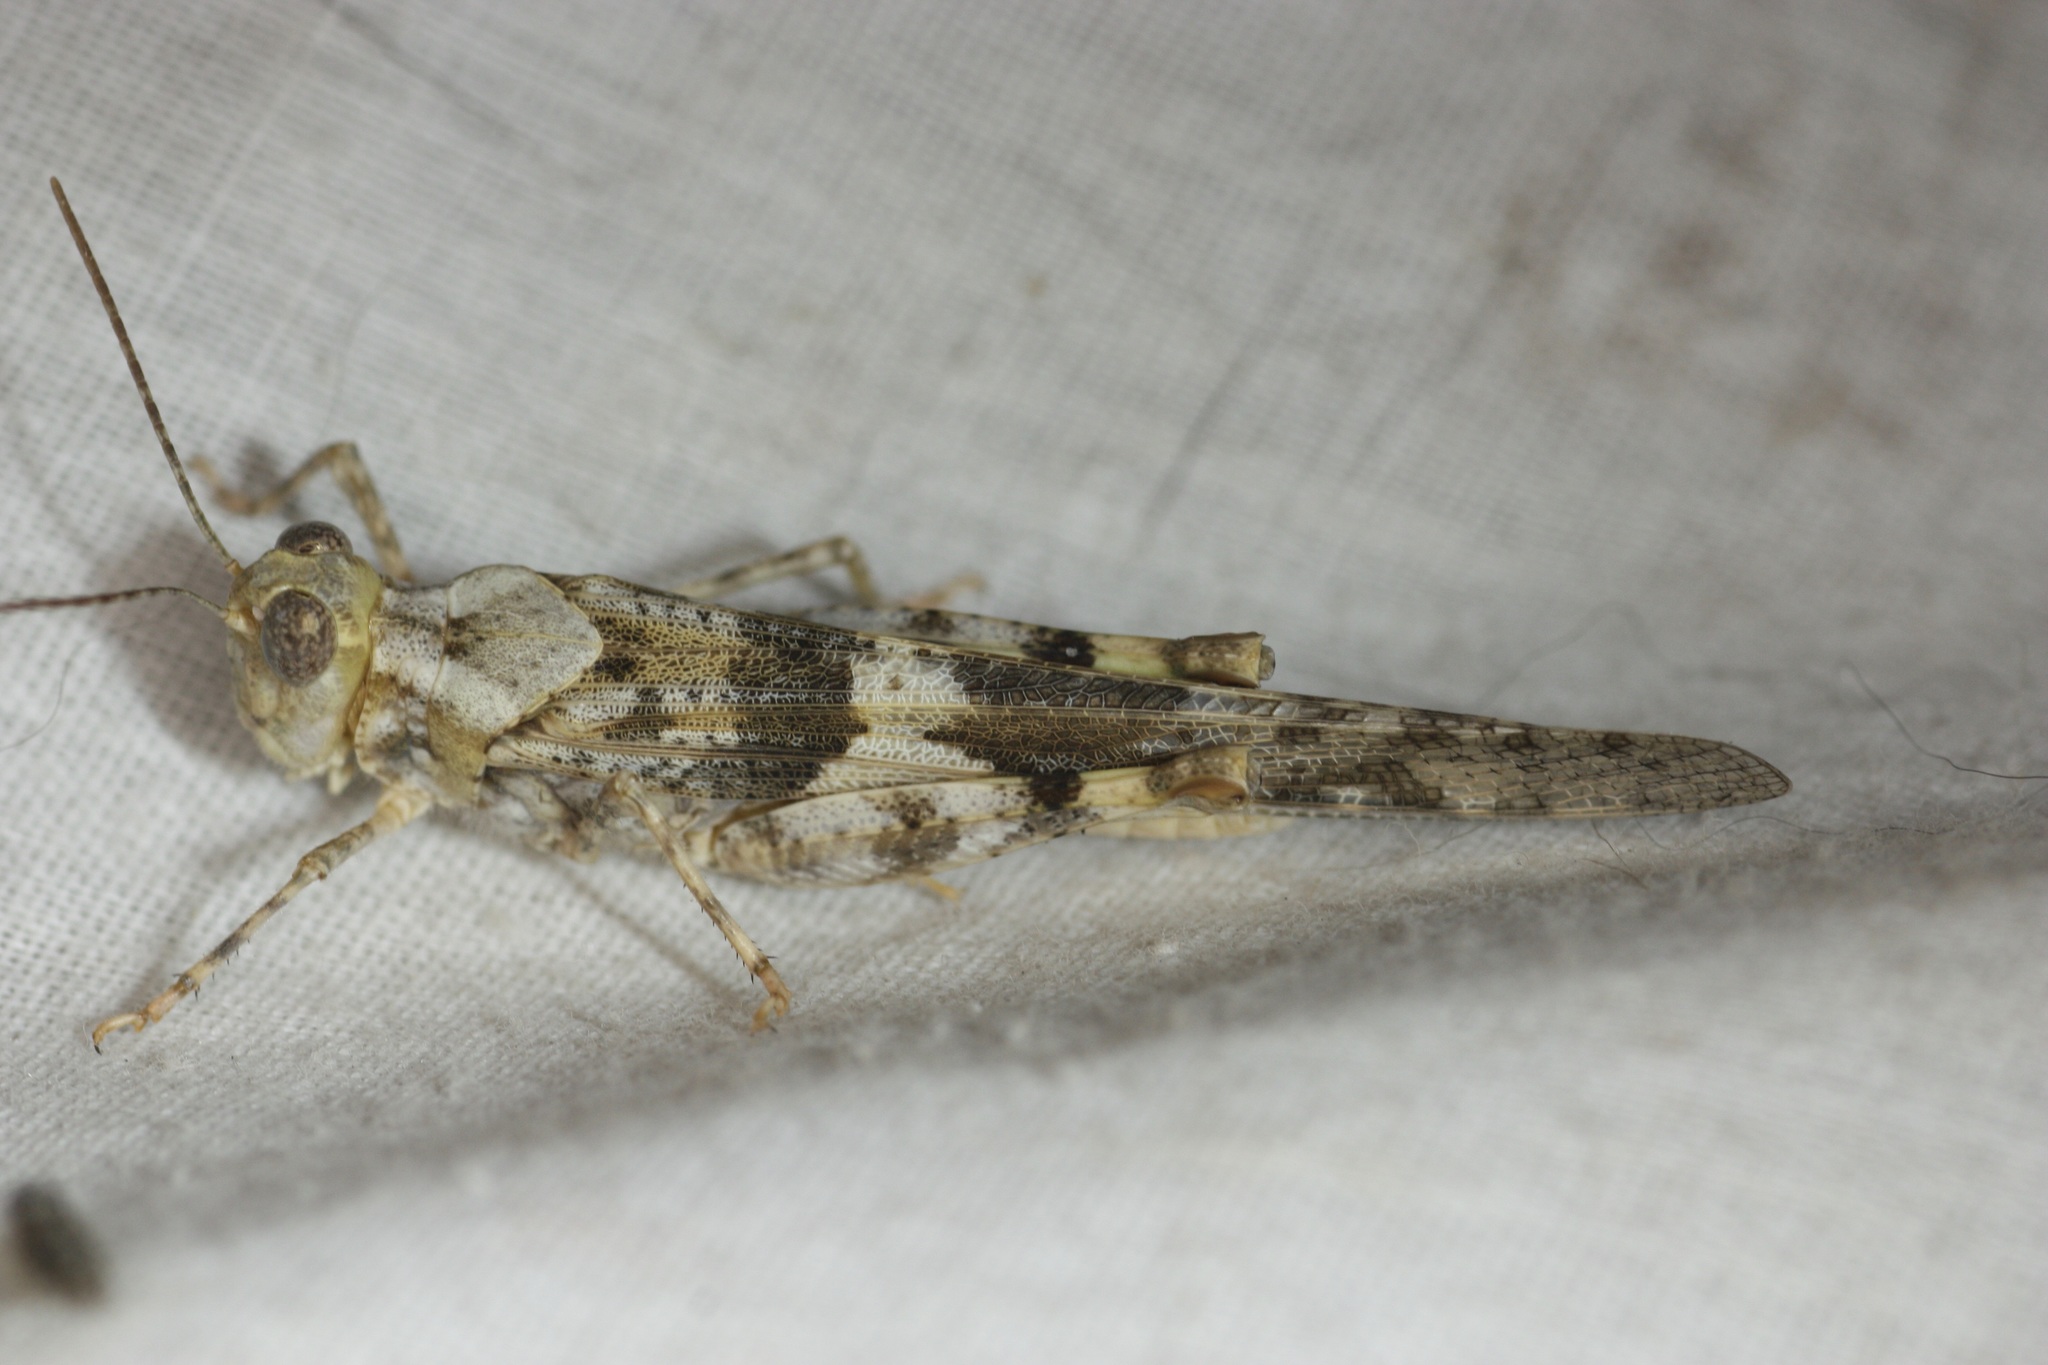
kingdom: Animalia
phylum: Arthropoda
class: Insecta
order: Orthoptera
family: Acrididae
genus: Trimerotropis
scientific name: Trimerotropis pallidipennis
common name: Pallid-winged grasshopper
